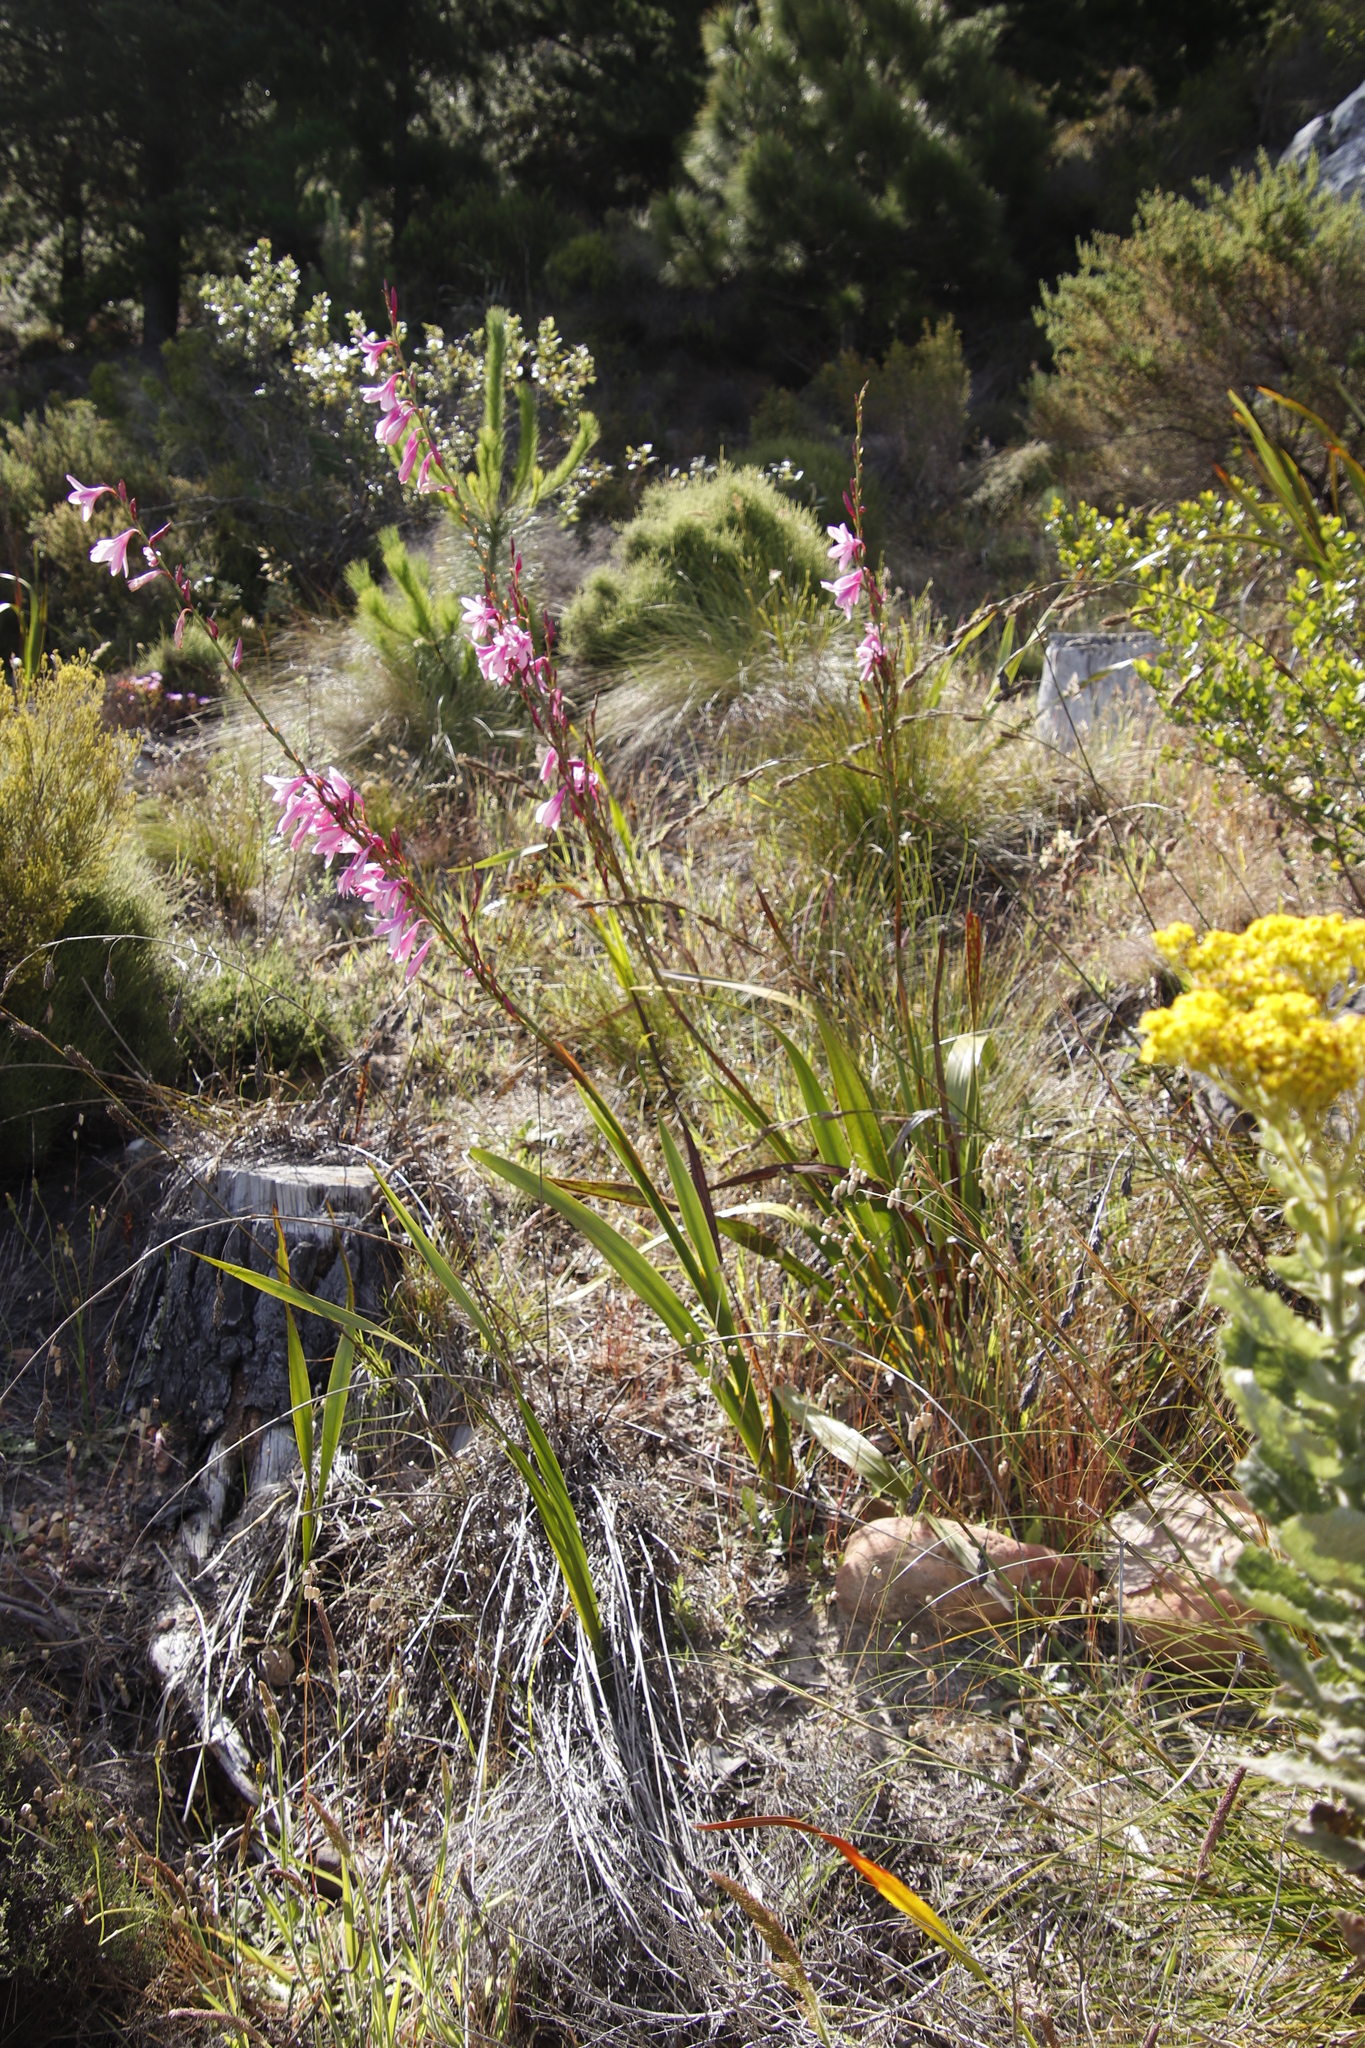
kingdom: Plantae
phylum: Tracheophyta
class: Liliopsida
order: Asparagales
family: Iridaceae
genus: Watsonia
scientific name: Watsonia borbonica
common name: Bugle-lily
